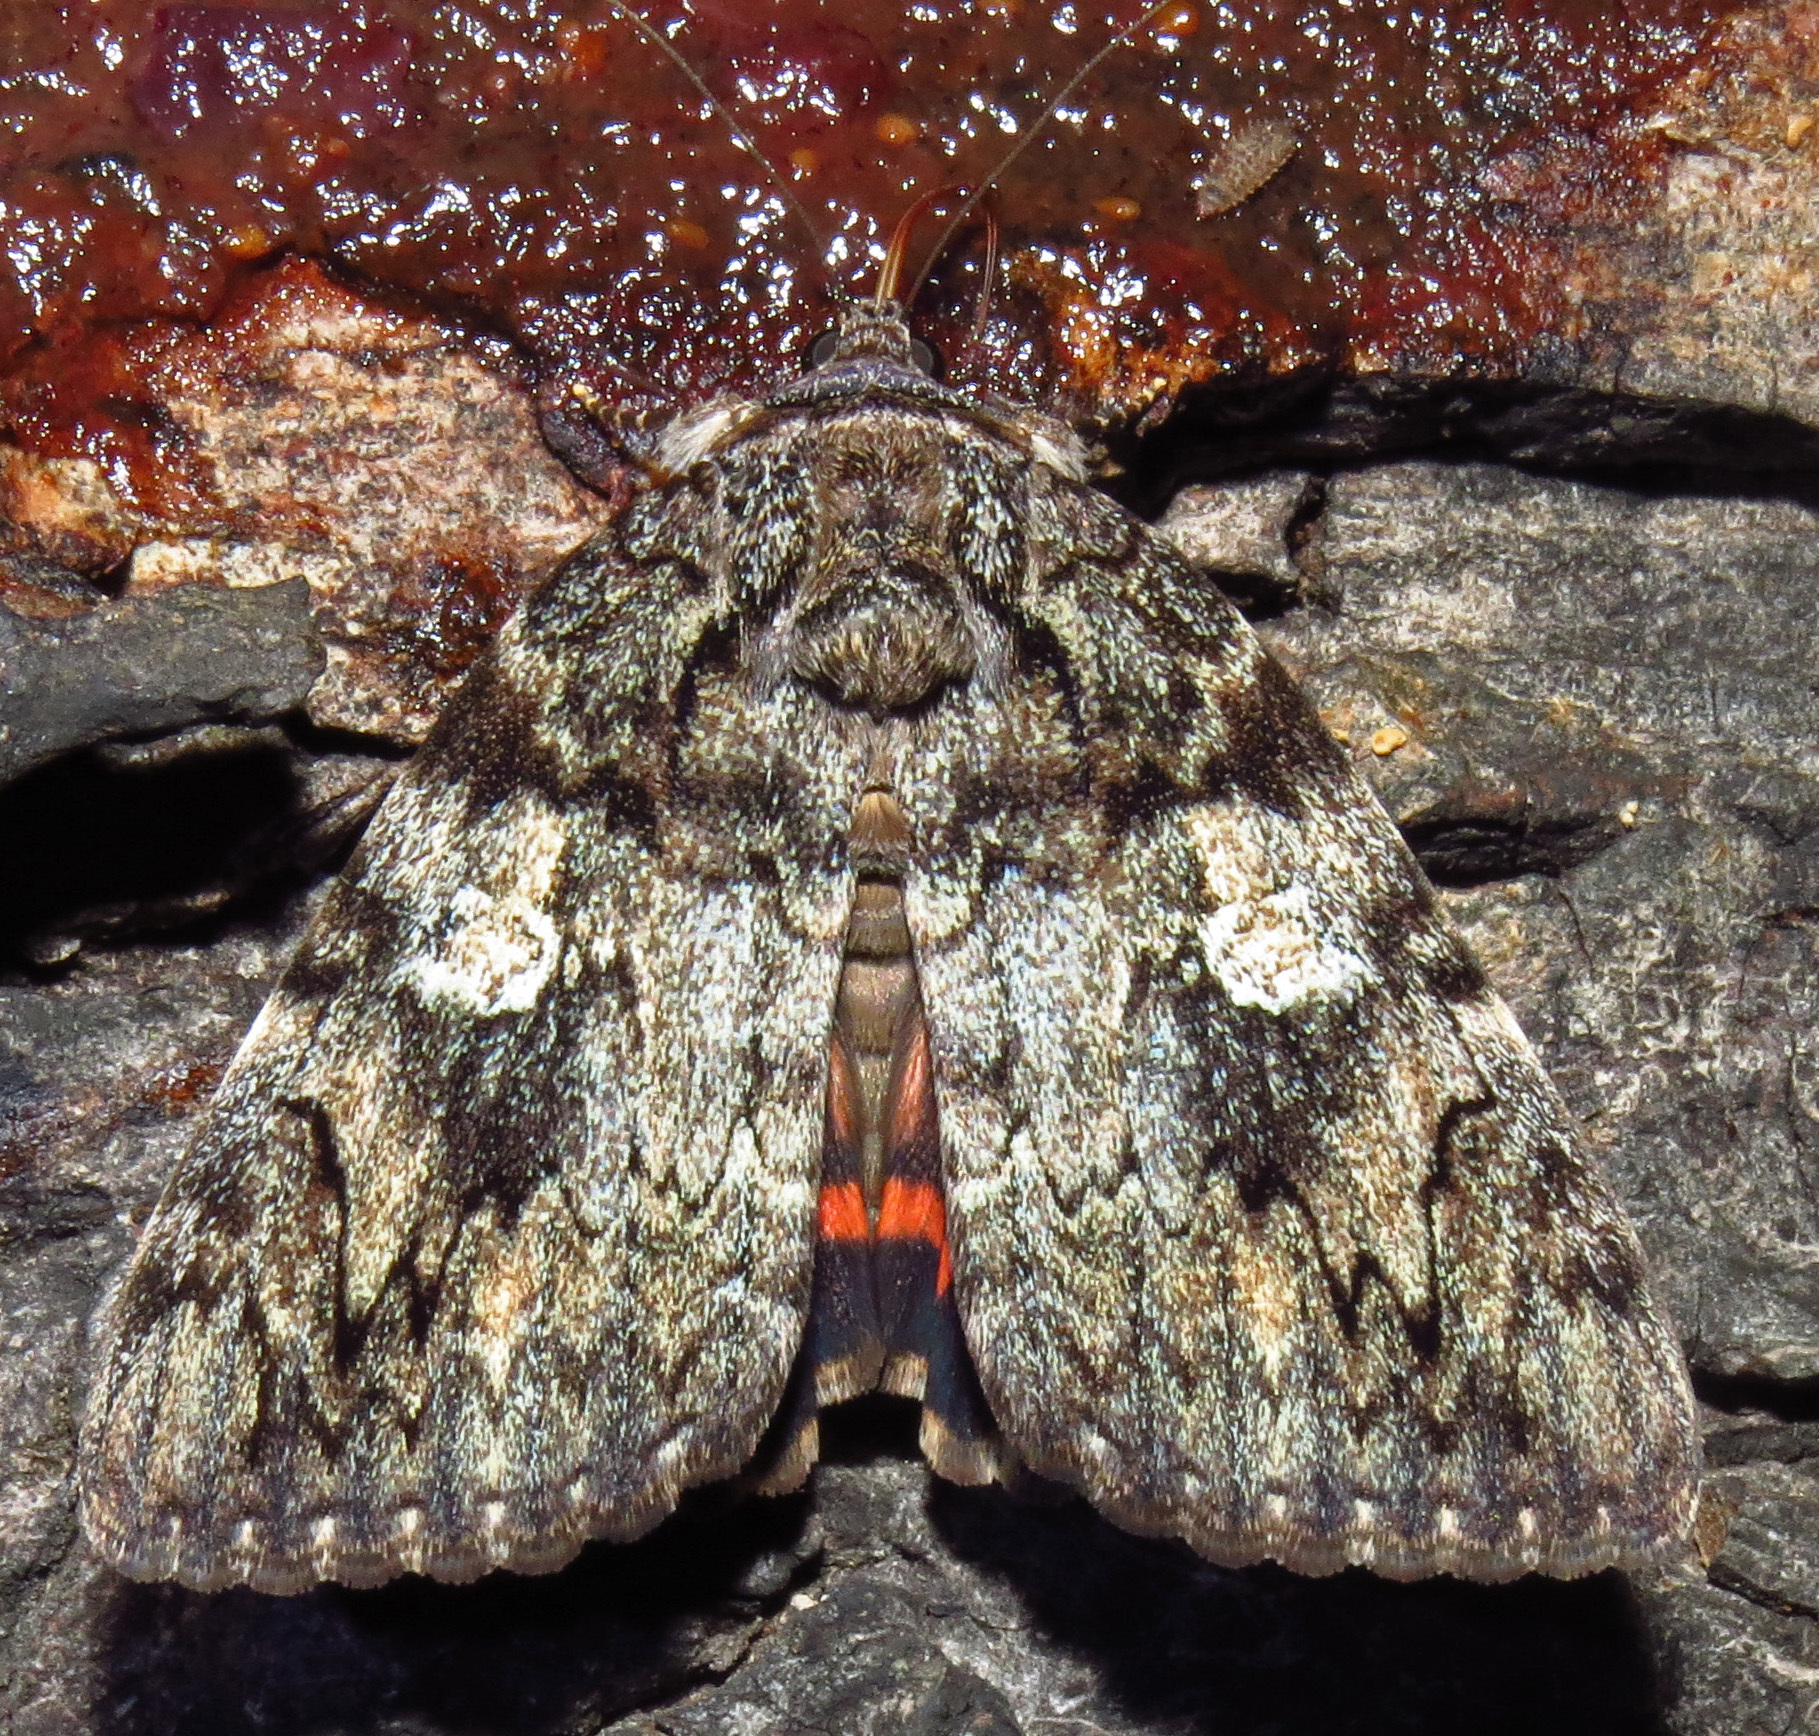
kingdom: Animalia
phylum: Arthropoda
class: Insecta
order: Lepidoptera
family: Erebidae
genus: Catocala
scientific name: Catocala ilia
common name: Ilia underwing
